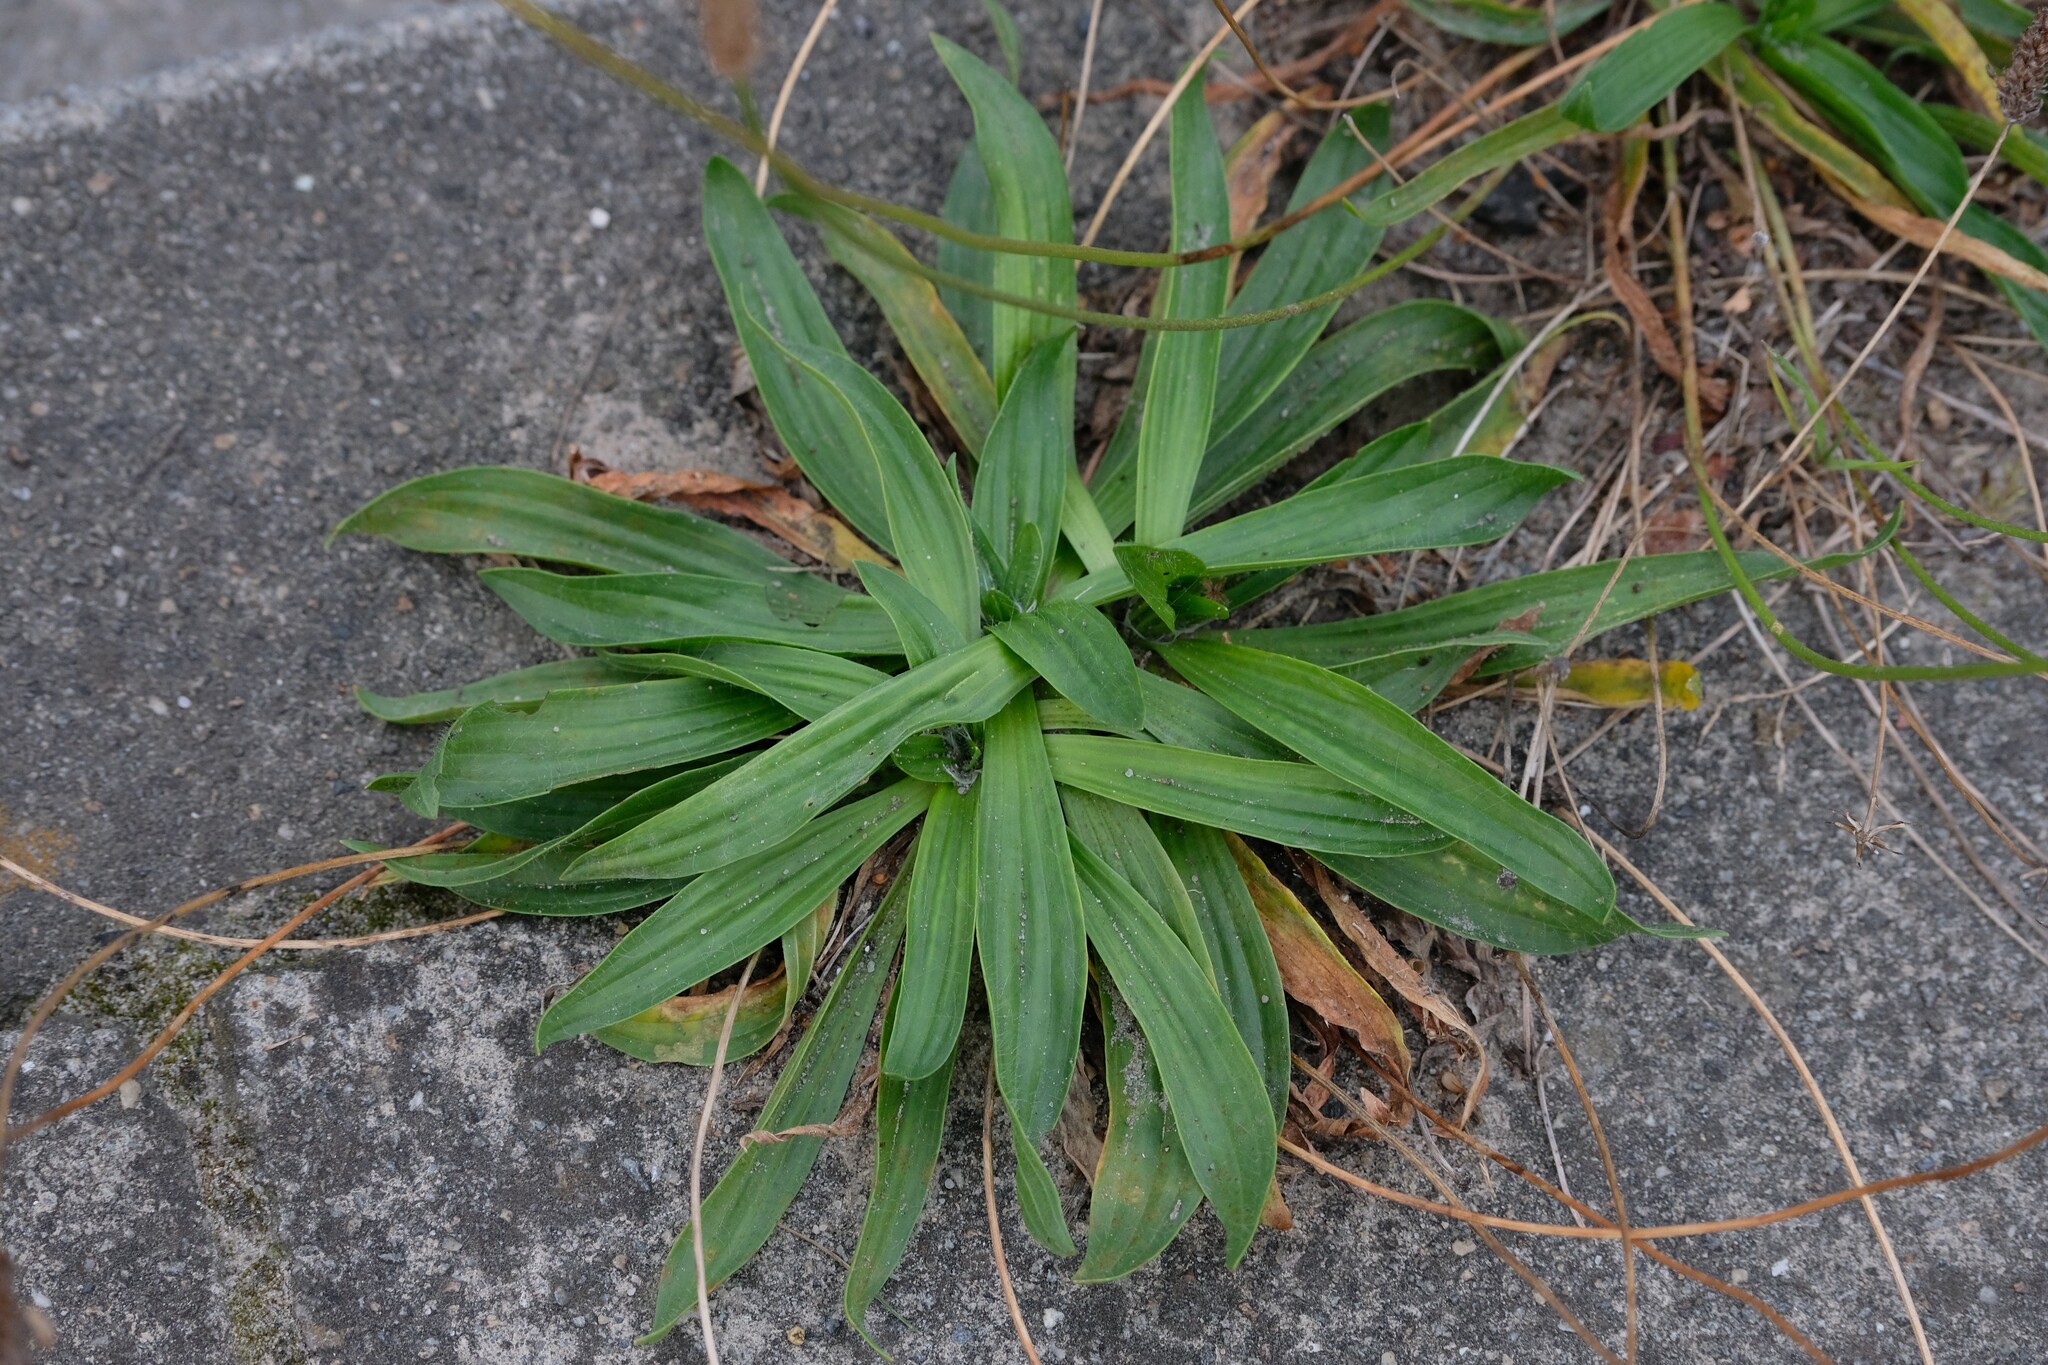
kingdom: Plantae
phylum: Tracheophyta
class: Magnoliopsida
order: Lamiales
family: Plantaginaceae
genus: Plantago
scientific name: Plantago lanceolata
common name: Ribwort plantain
